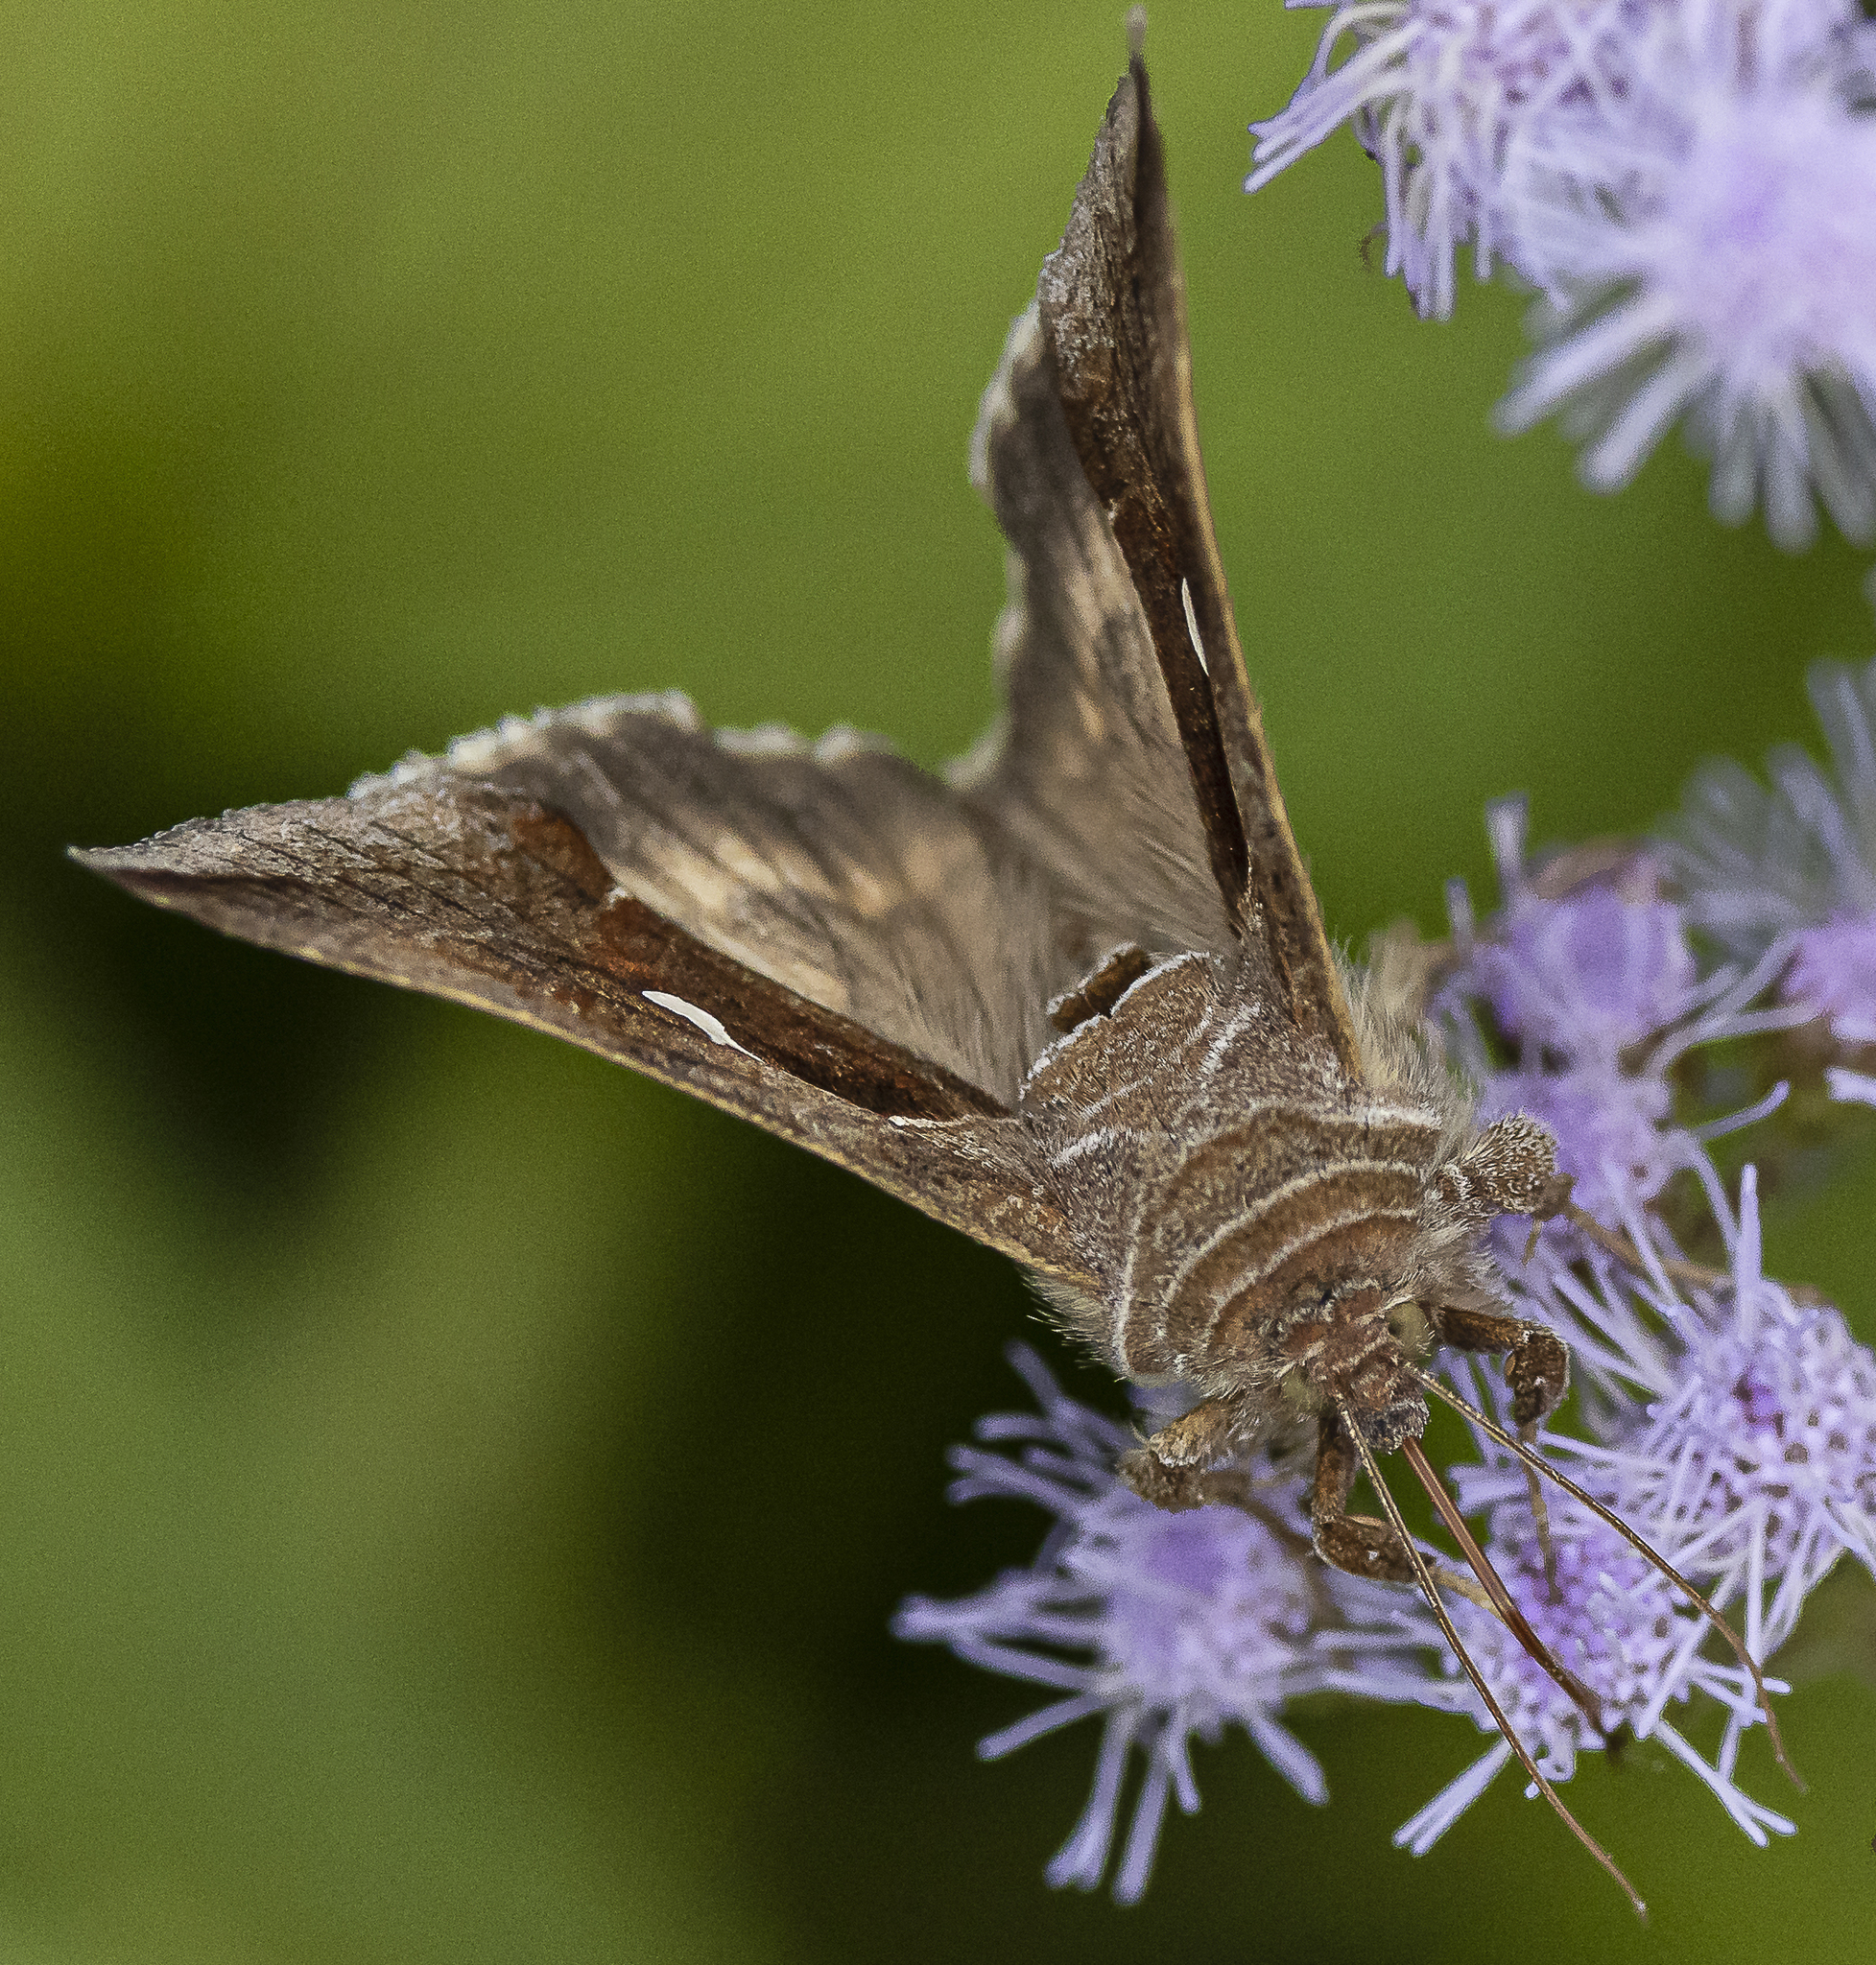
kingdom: Animalia
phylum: Arthropoda
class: Insecta
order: Lepidoptera
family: Noctuidae
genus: Anagrapha
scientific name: Anagrapha falcifera
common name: Celery looper
